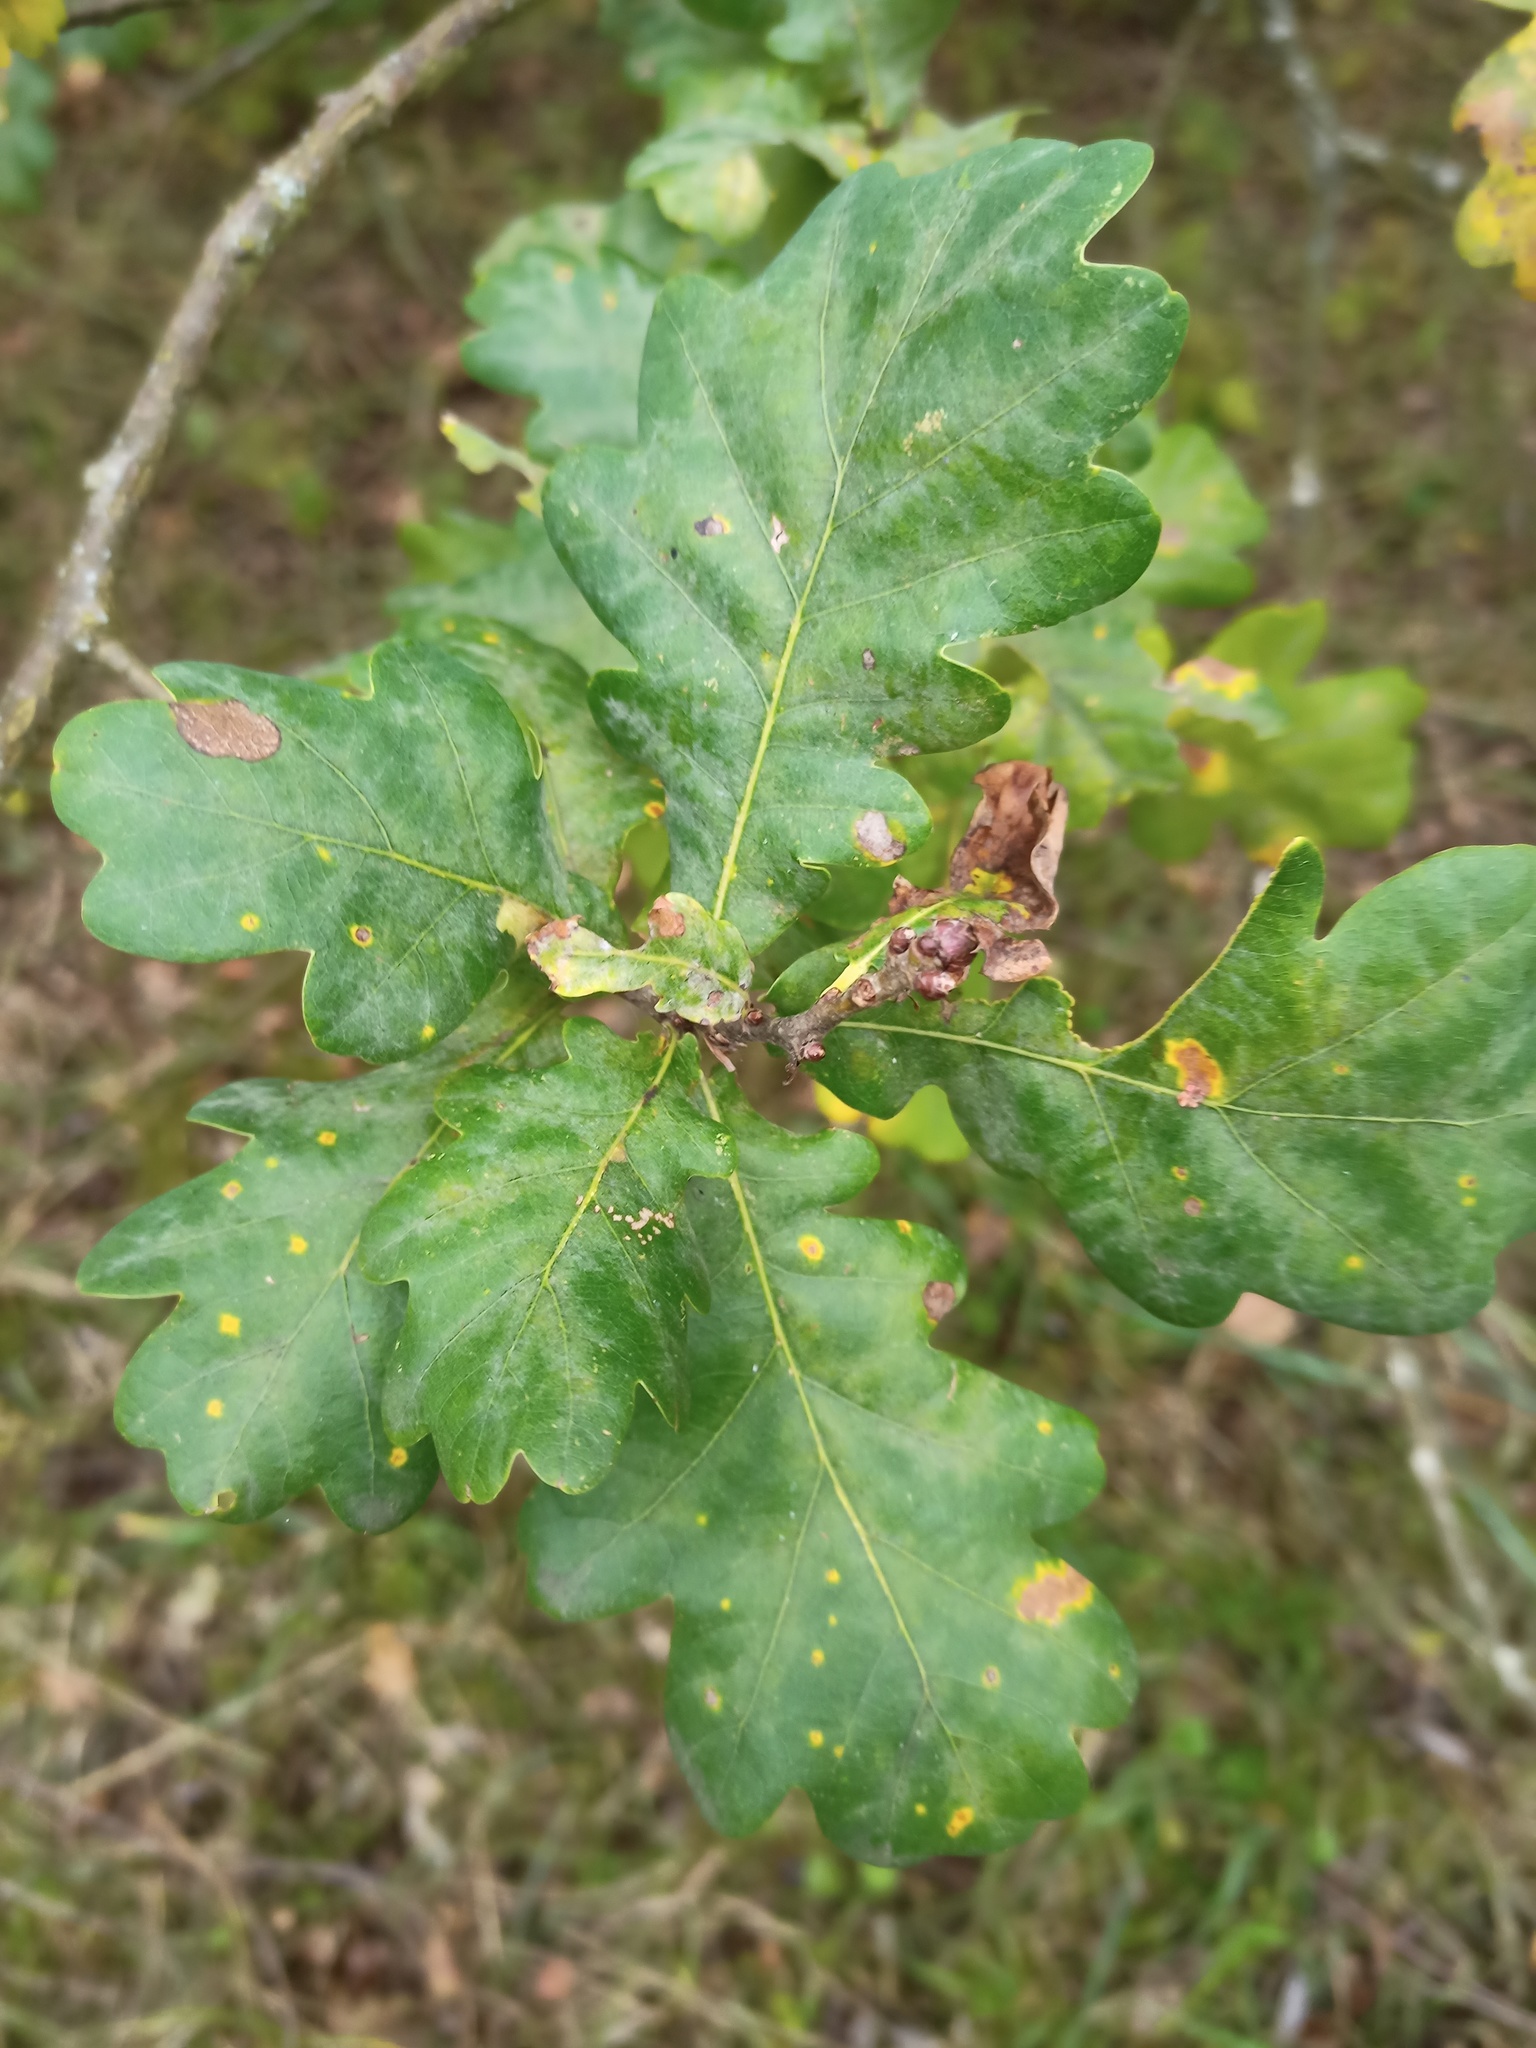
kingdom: Plantae
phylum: Tracheophyta
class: Magnoliopsida
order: Fagales
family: Fagaceae
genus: Quercus
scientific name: Quercus robur
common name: Pedunculate oak
